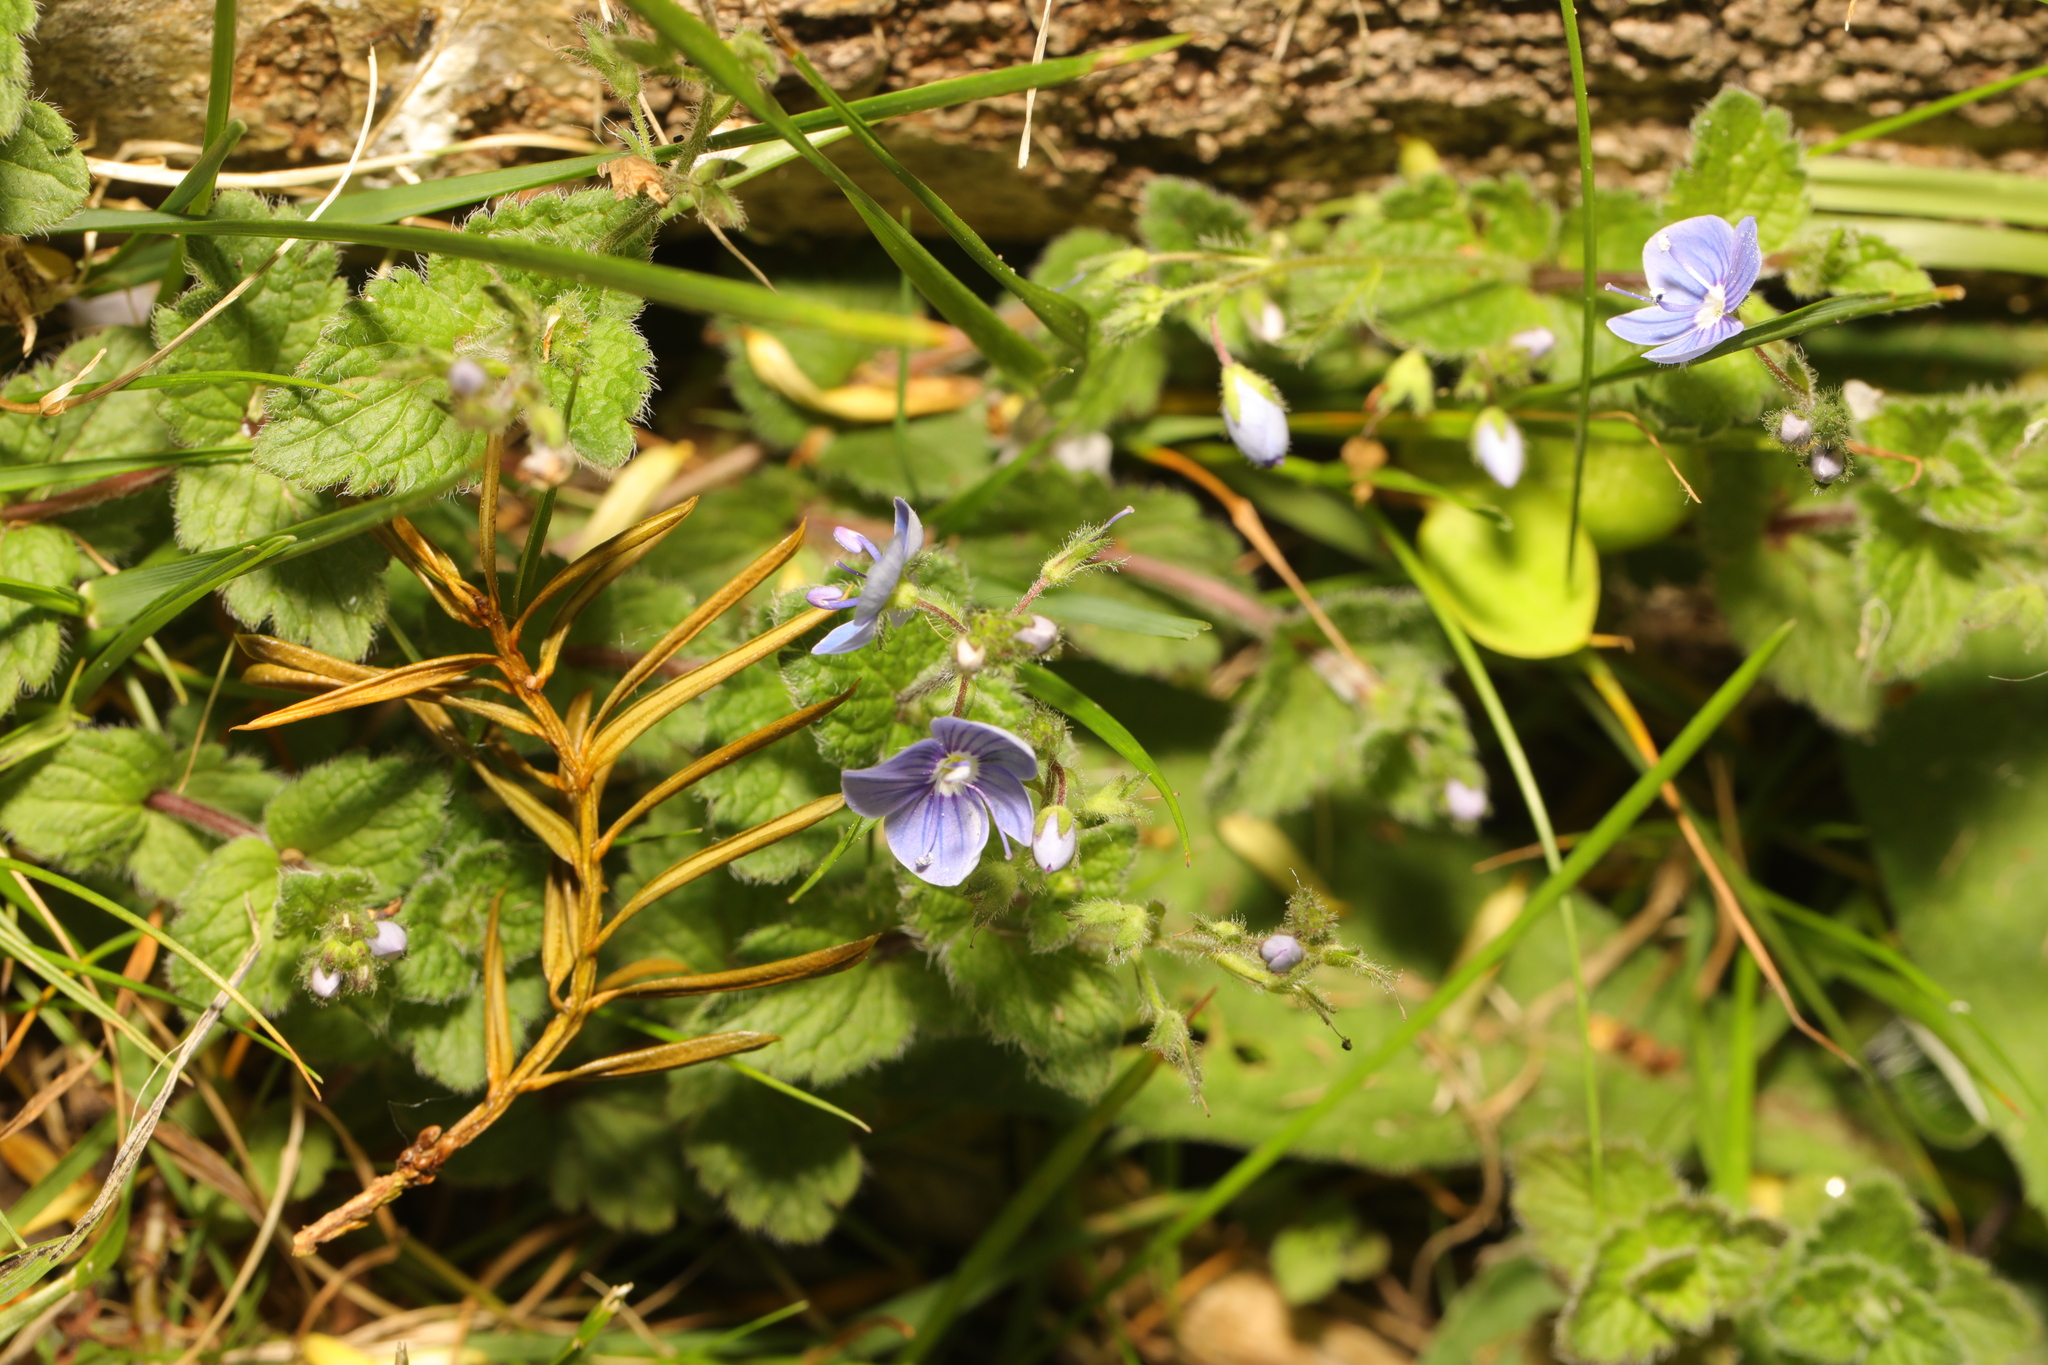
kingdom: Plantae
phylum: Tracheophyta
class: Magnoliopsida
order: Lamiales
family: Plantaginaceae
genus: Veronica
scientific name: Veronica chamaedrys
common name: Germander speedwell
